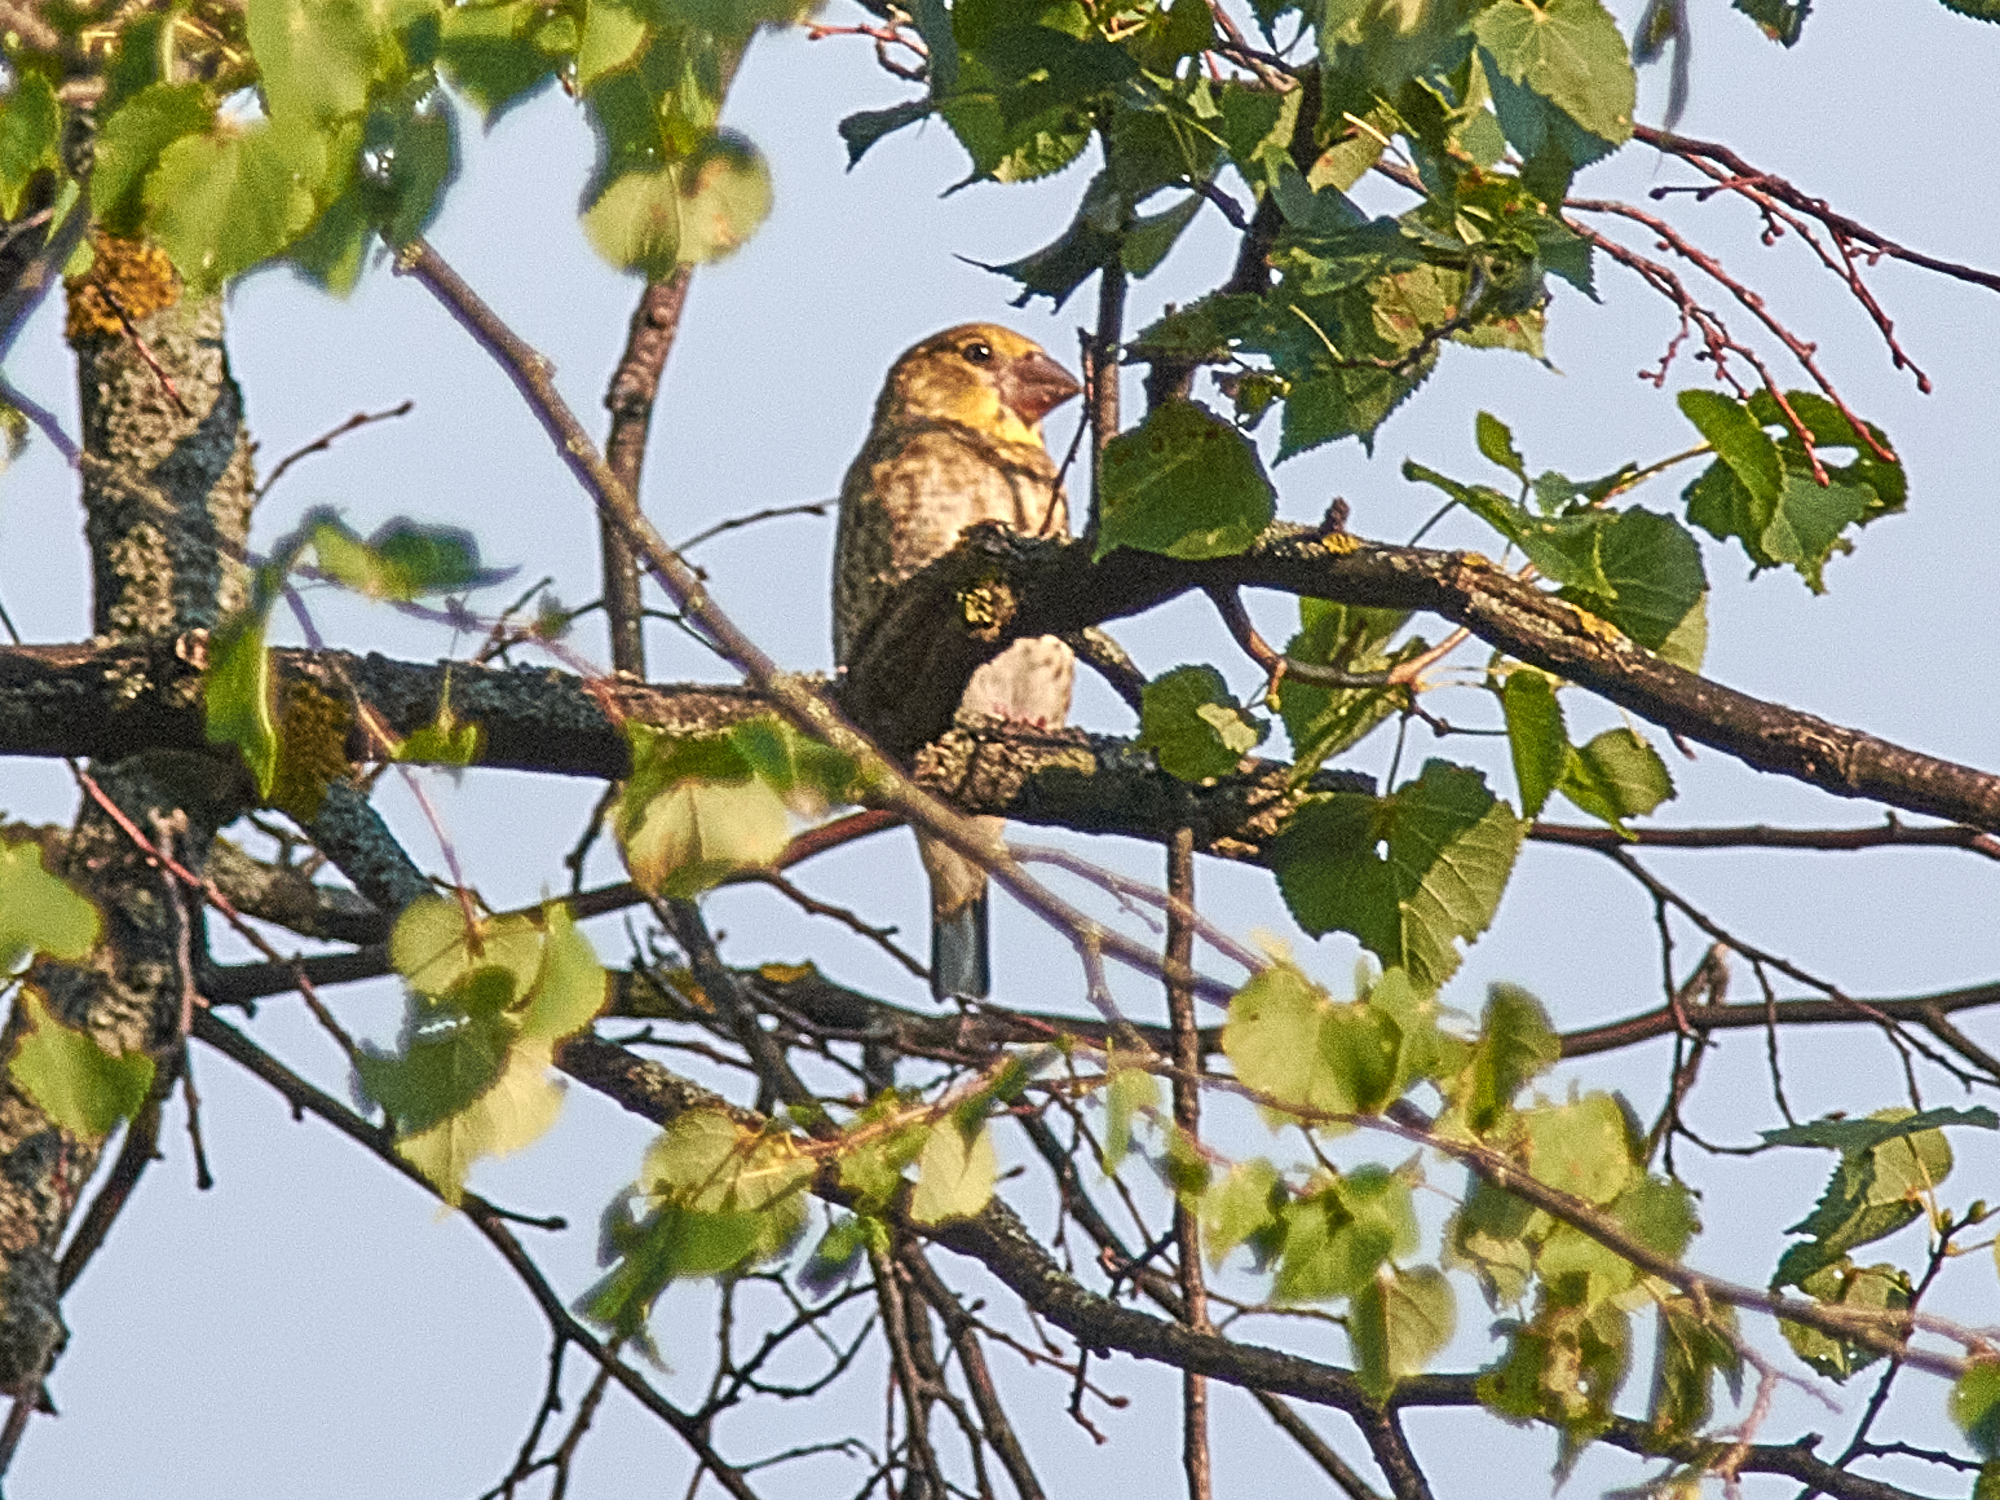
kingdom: Animalia
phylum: Chordata
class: Aves
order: Passeriformes
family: Fringillidae
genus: Coccothraustes
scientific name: Coccothraustes coccothraustes
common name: Hawfinch
